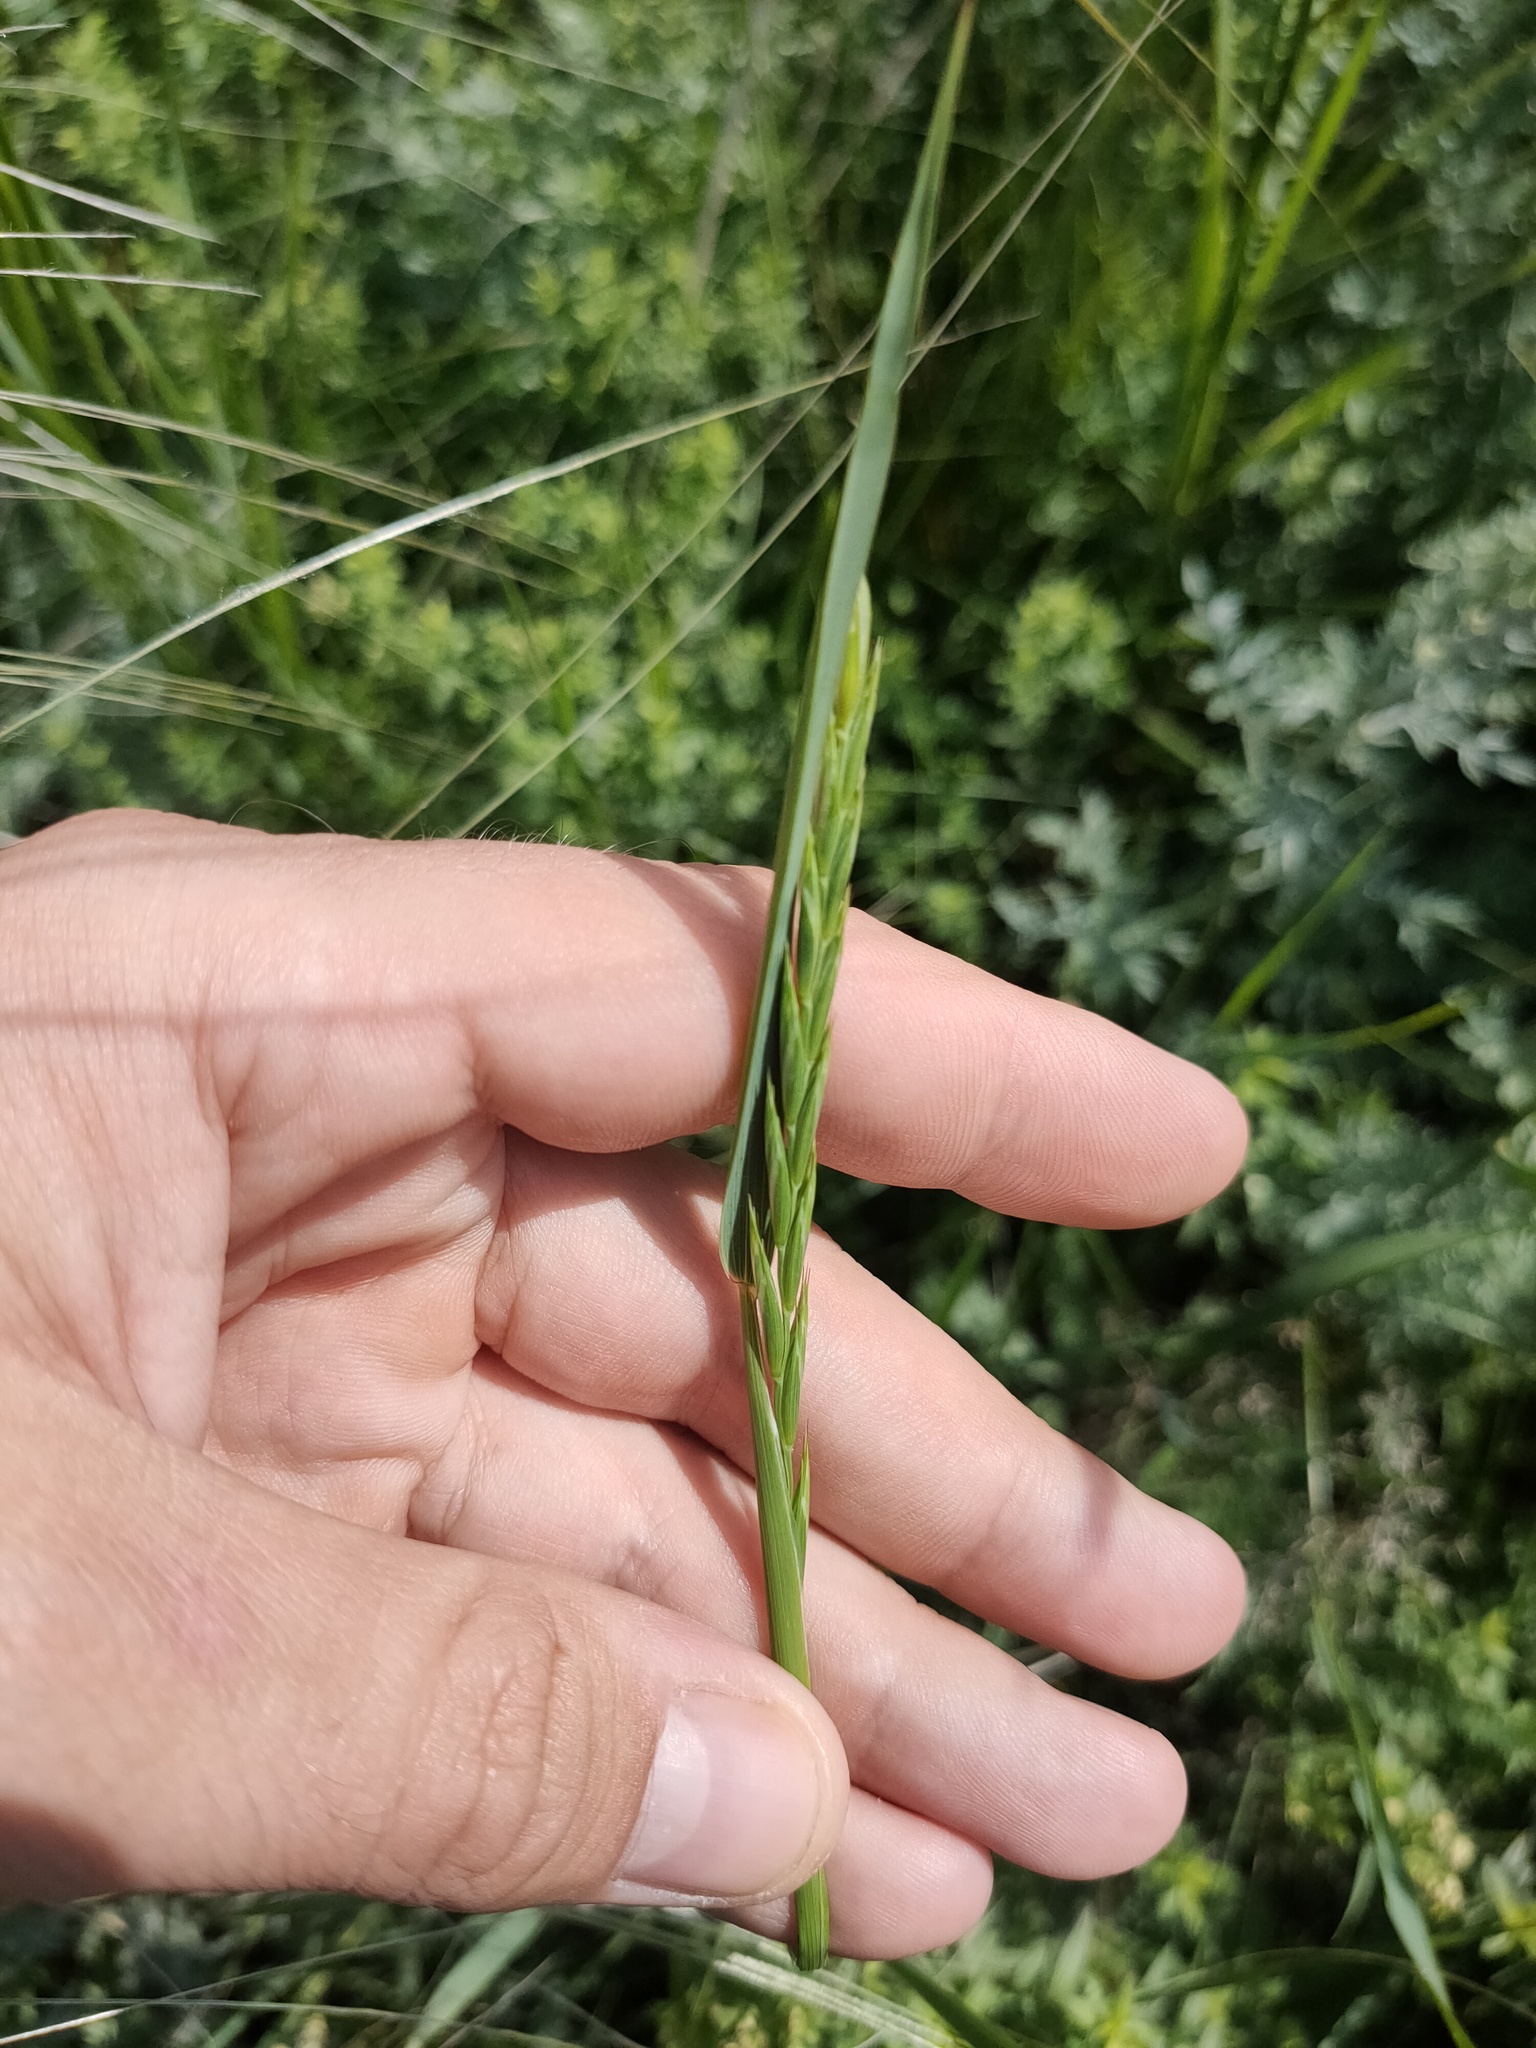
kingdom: Plantae
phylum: Tracheophyta
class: Liliopsida
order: Poales
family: Poaceae
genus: Elymus
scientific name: Elymus repens
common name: Quackgrass
